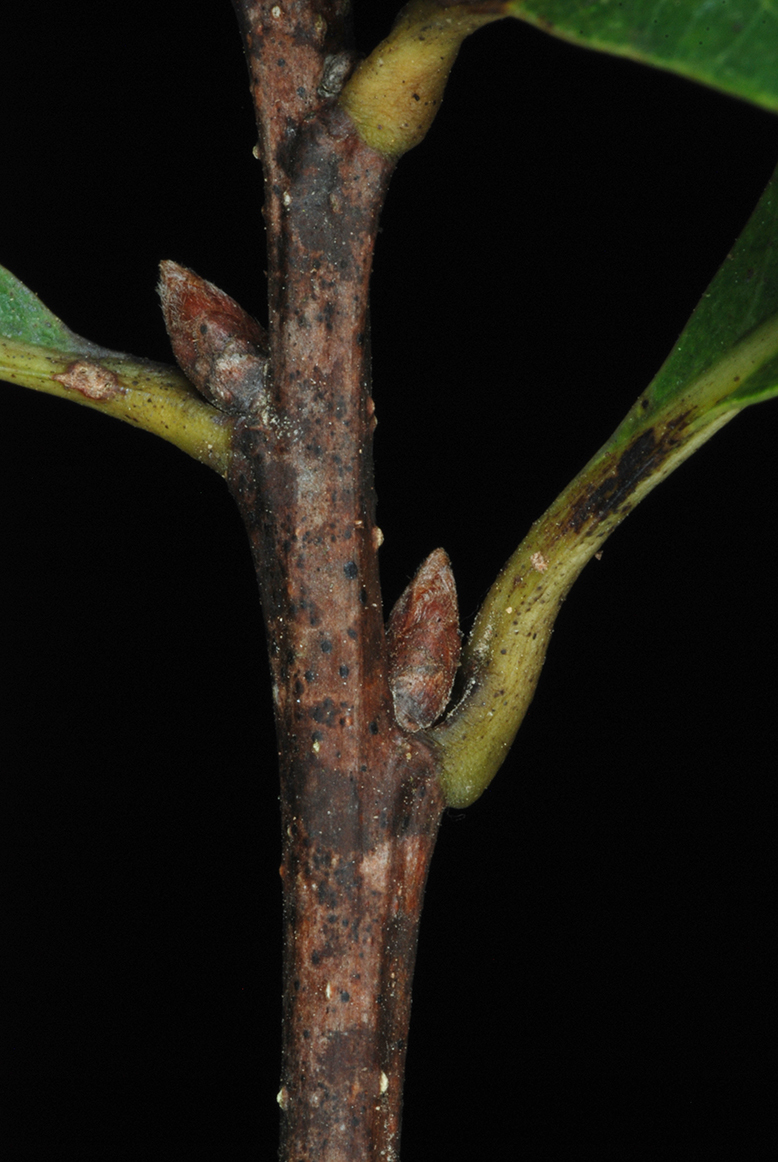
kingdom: Plantae
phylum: Tracheophyta
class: Magnoliopsida
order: Fagales
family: Fagaceae
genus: Quercus
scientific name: Quercus austrina
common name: Bastard white oak
